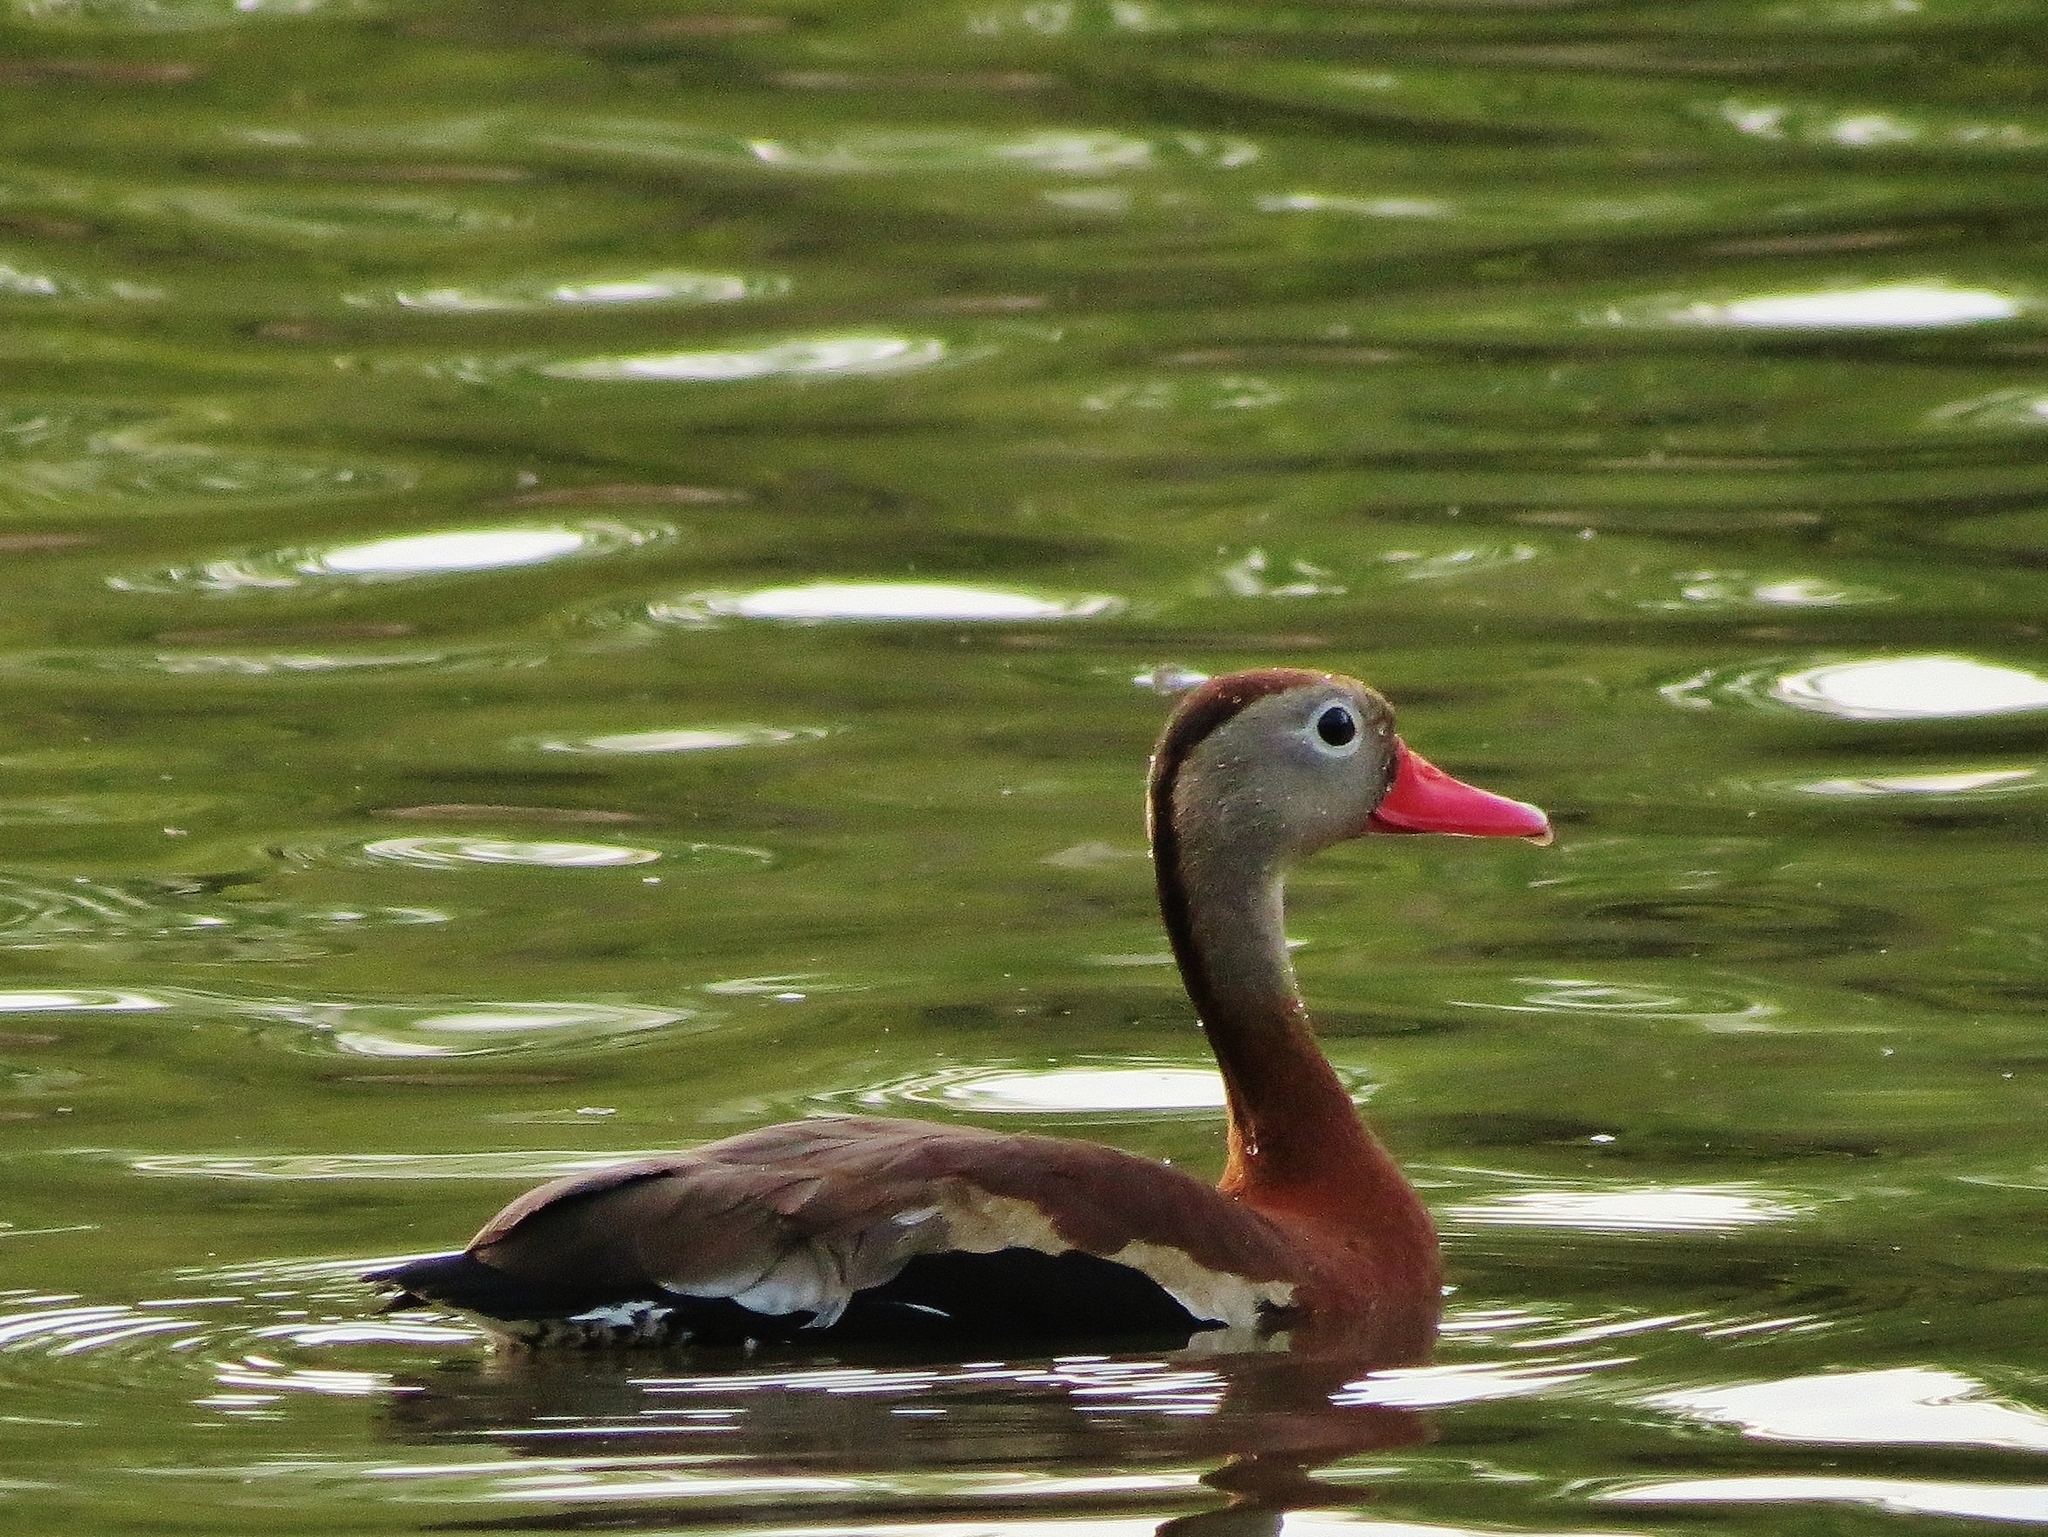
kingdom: Animalia
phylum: Chordata
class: Aves
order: Anseriformes
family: Anatidae
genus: Dendrocygna
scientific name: Dendrocygna autumnalis
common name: Black-bellied whistling duck
